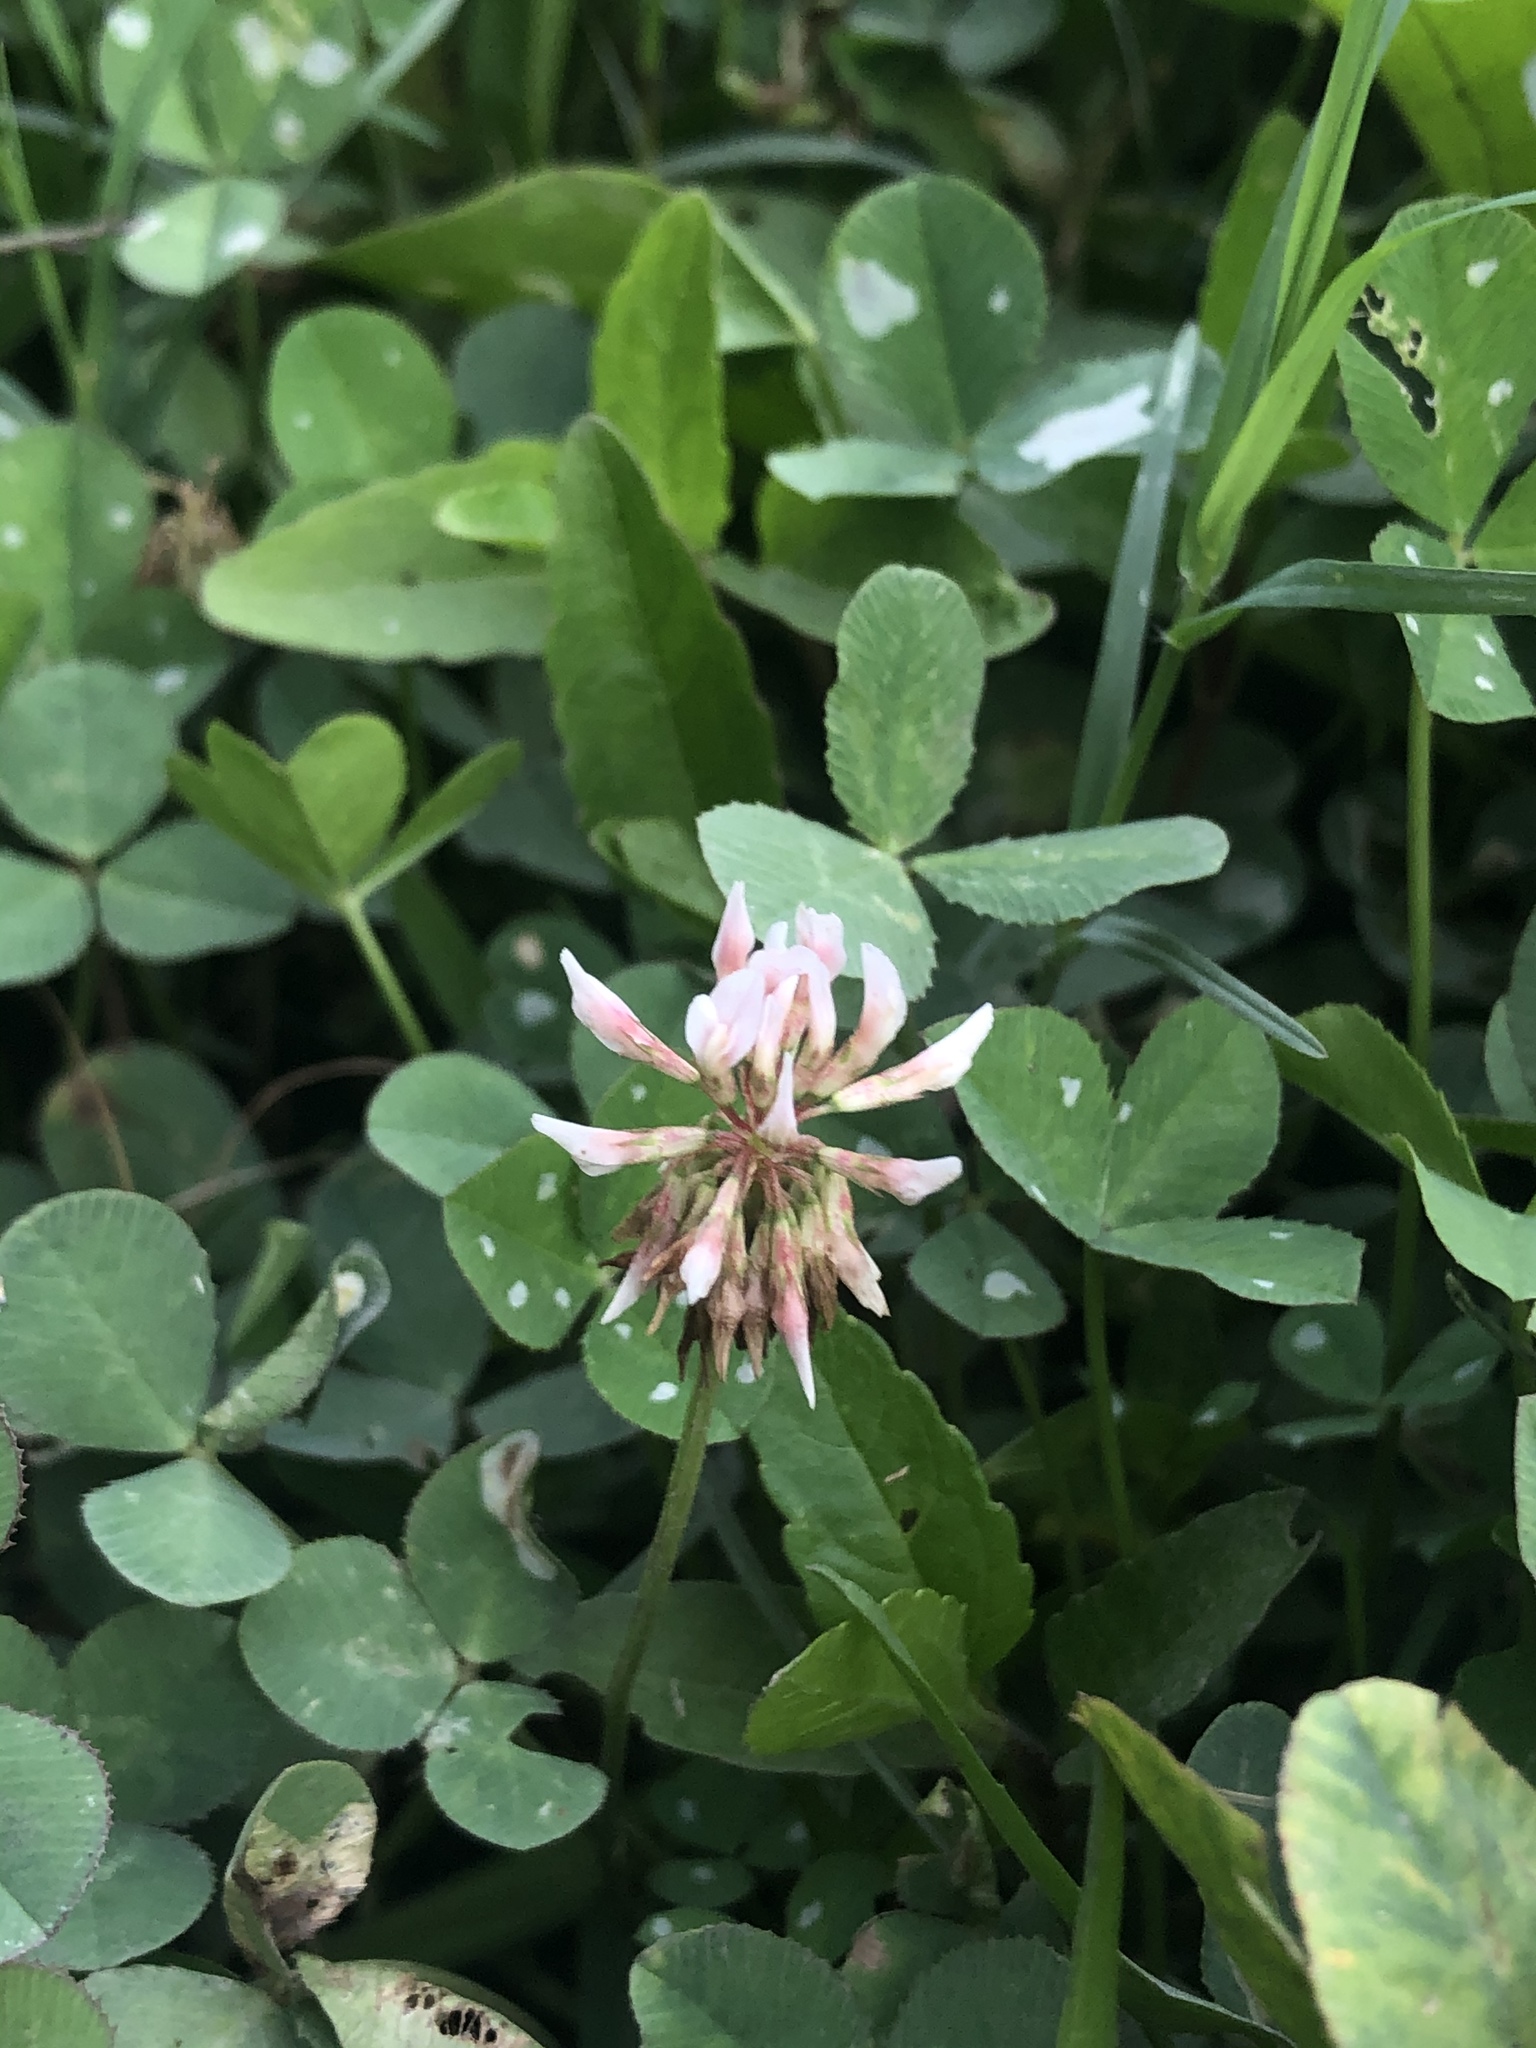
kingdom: Plantae
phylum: Tracheophyta
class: Magnoliopsida
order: Fabales
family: Fabaceae
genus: Trifolium
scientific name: Trifolium repens
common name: White clover
